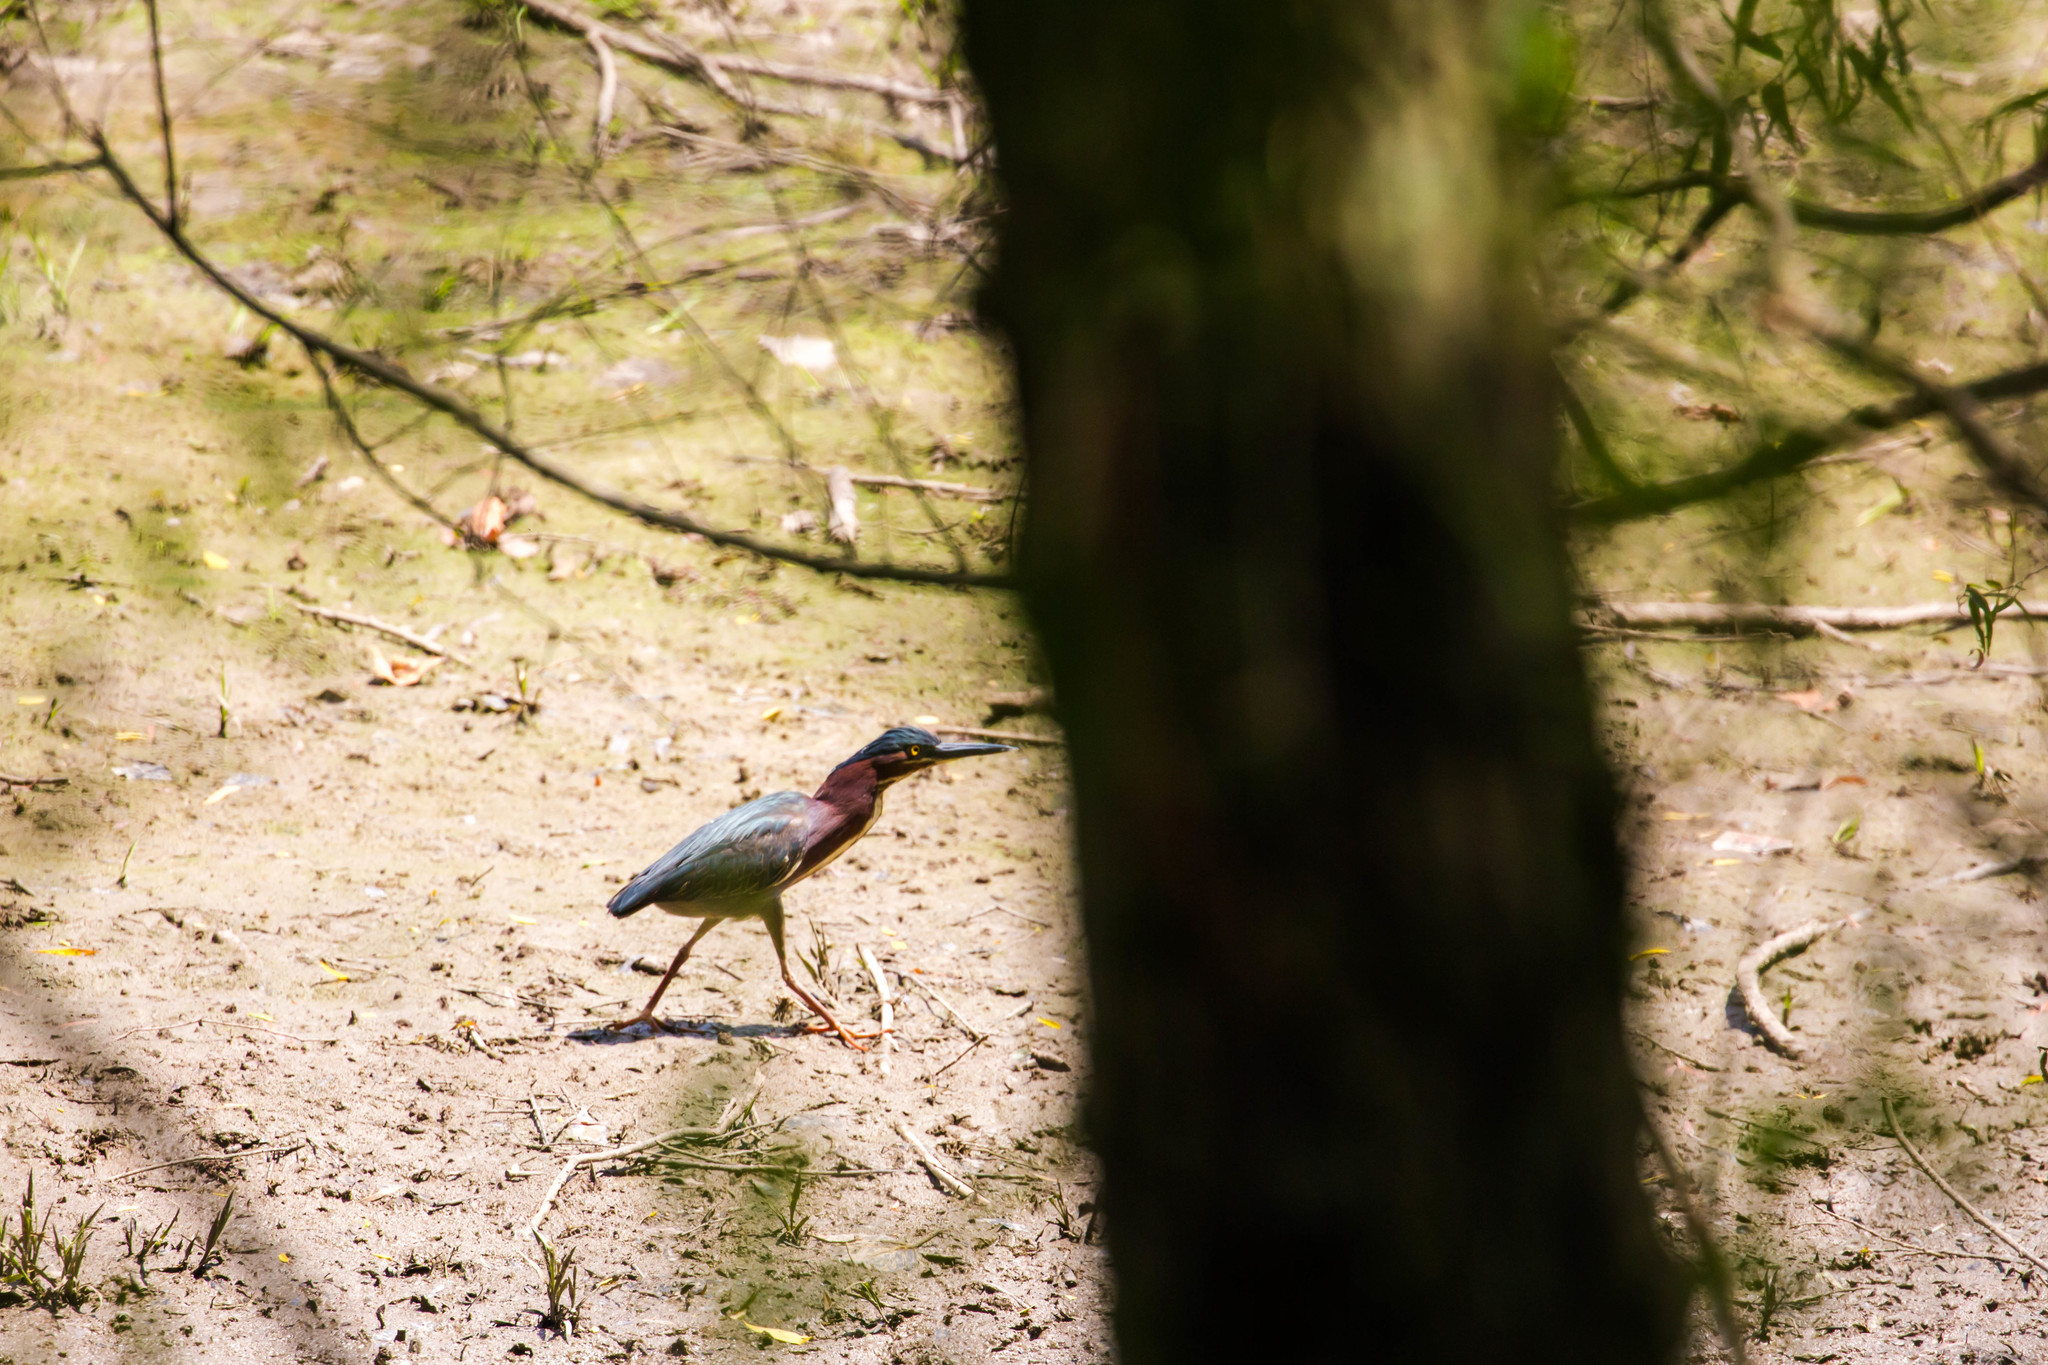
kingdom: Animalia
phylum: Chordata
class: Aves
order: Pelecaniformes
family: Ardeidae
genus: Butorides
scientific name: Butorides virescens
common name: Green heron
